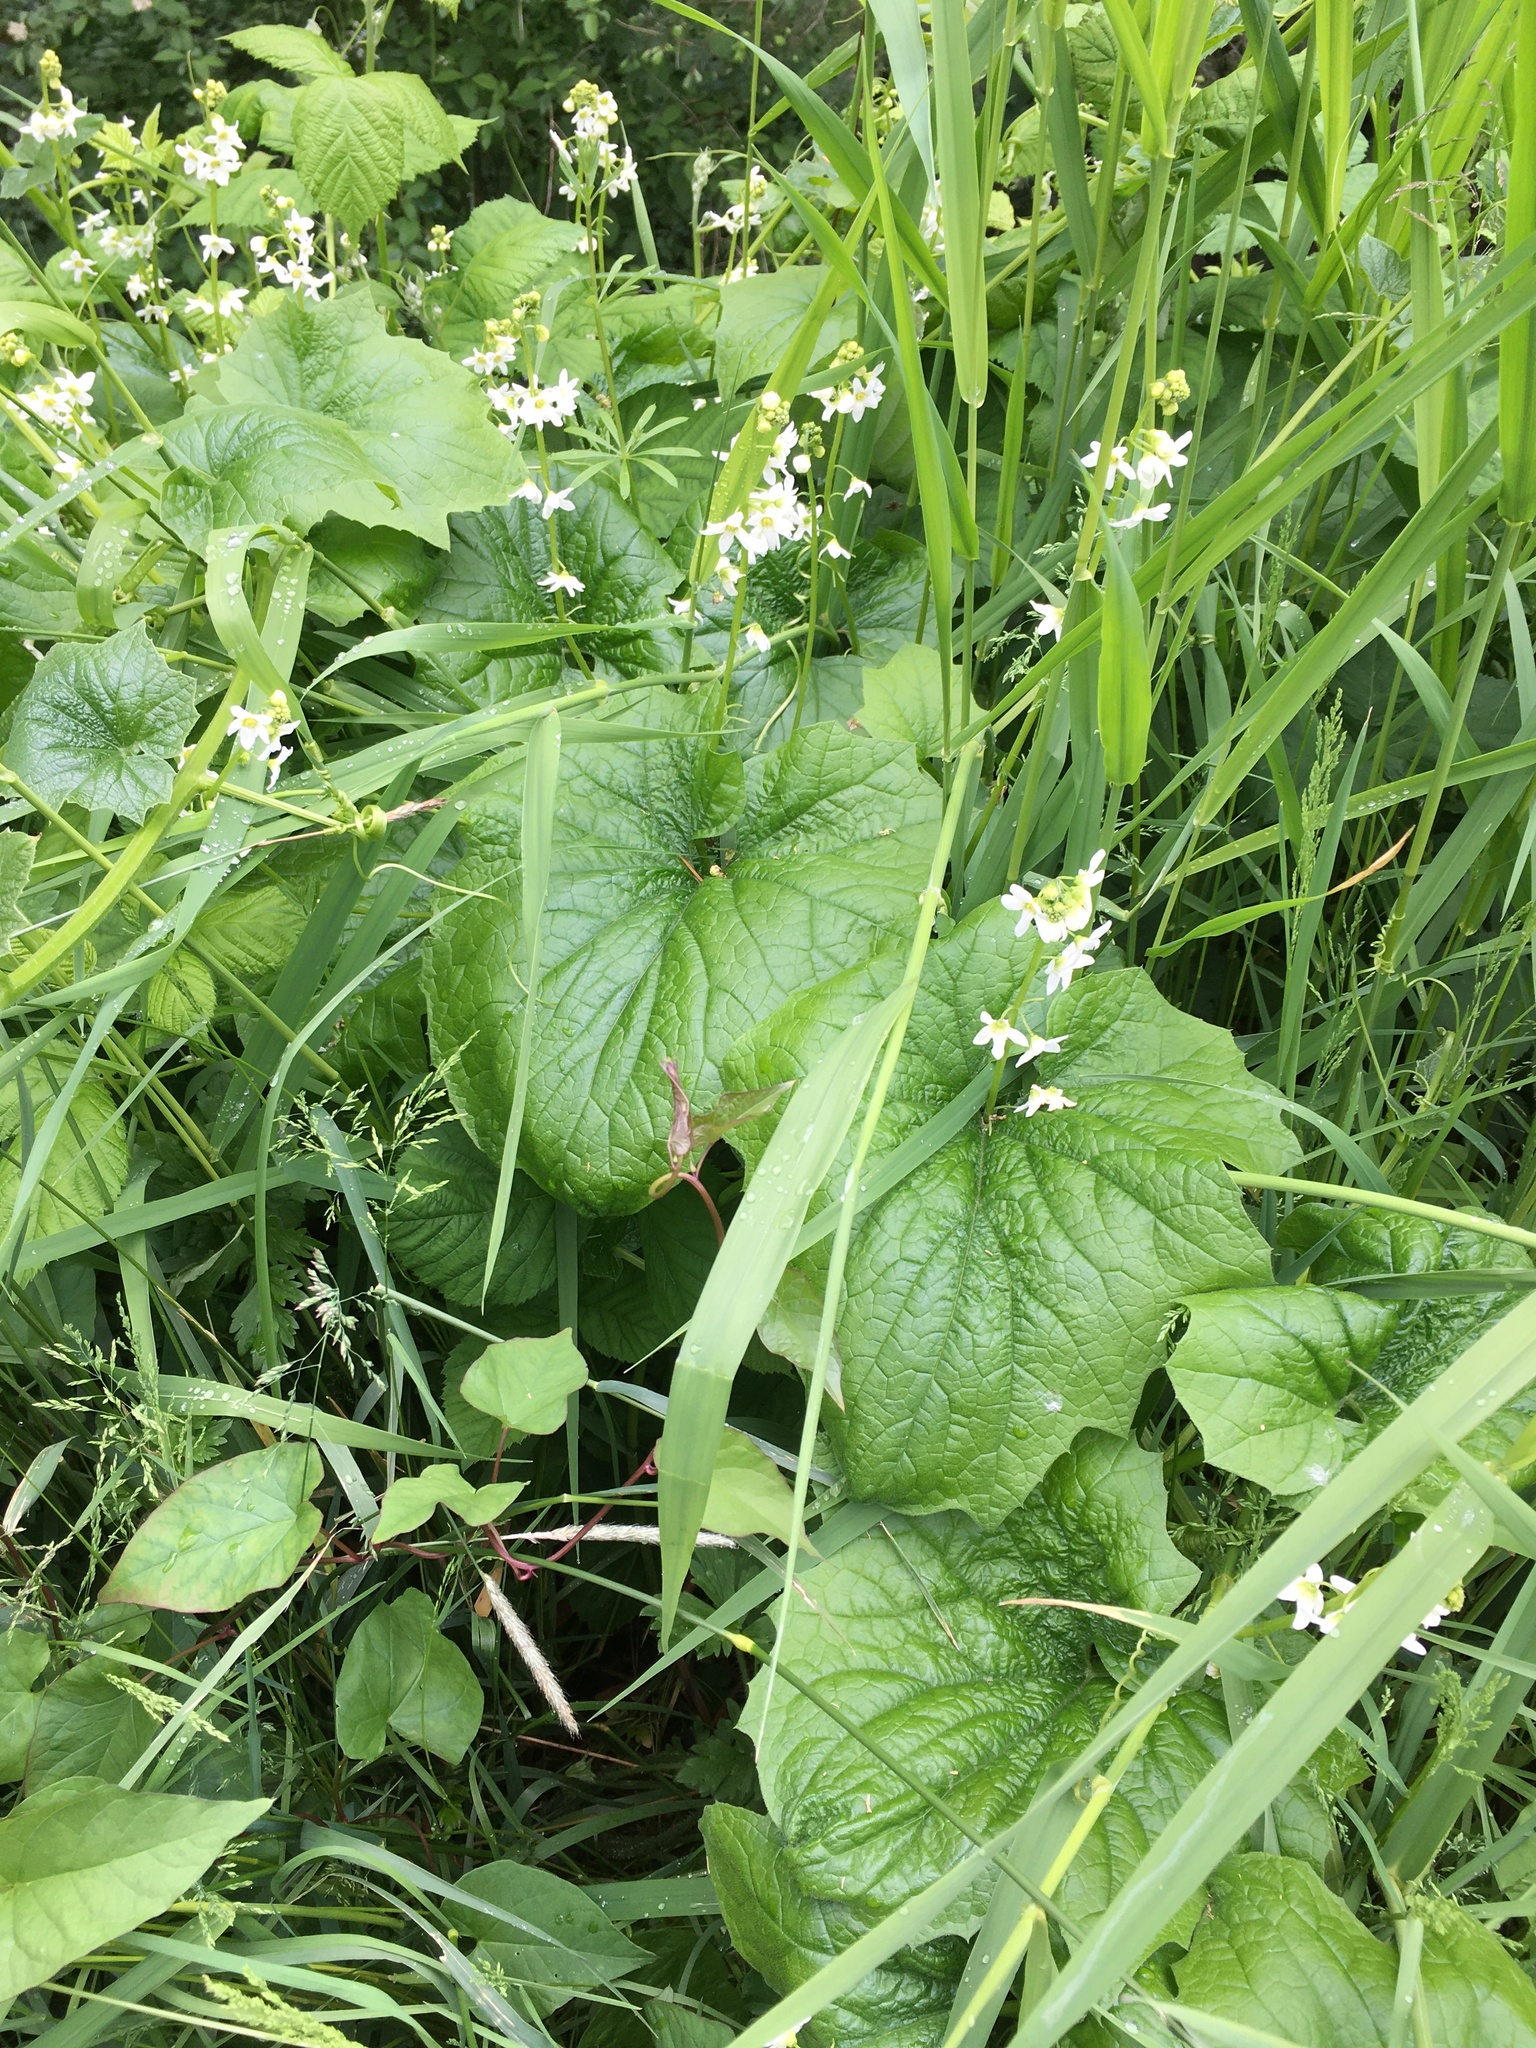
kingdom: Plantae
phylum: Tracheophyta
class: Magnoliopsida
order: Cucurbitales
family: Cucurbitaceae
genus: Marah
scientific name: Marah oregana
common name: Coastal manroot
